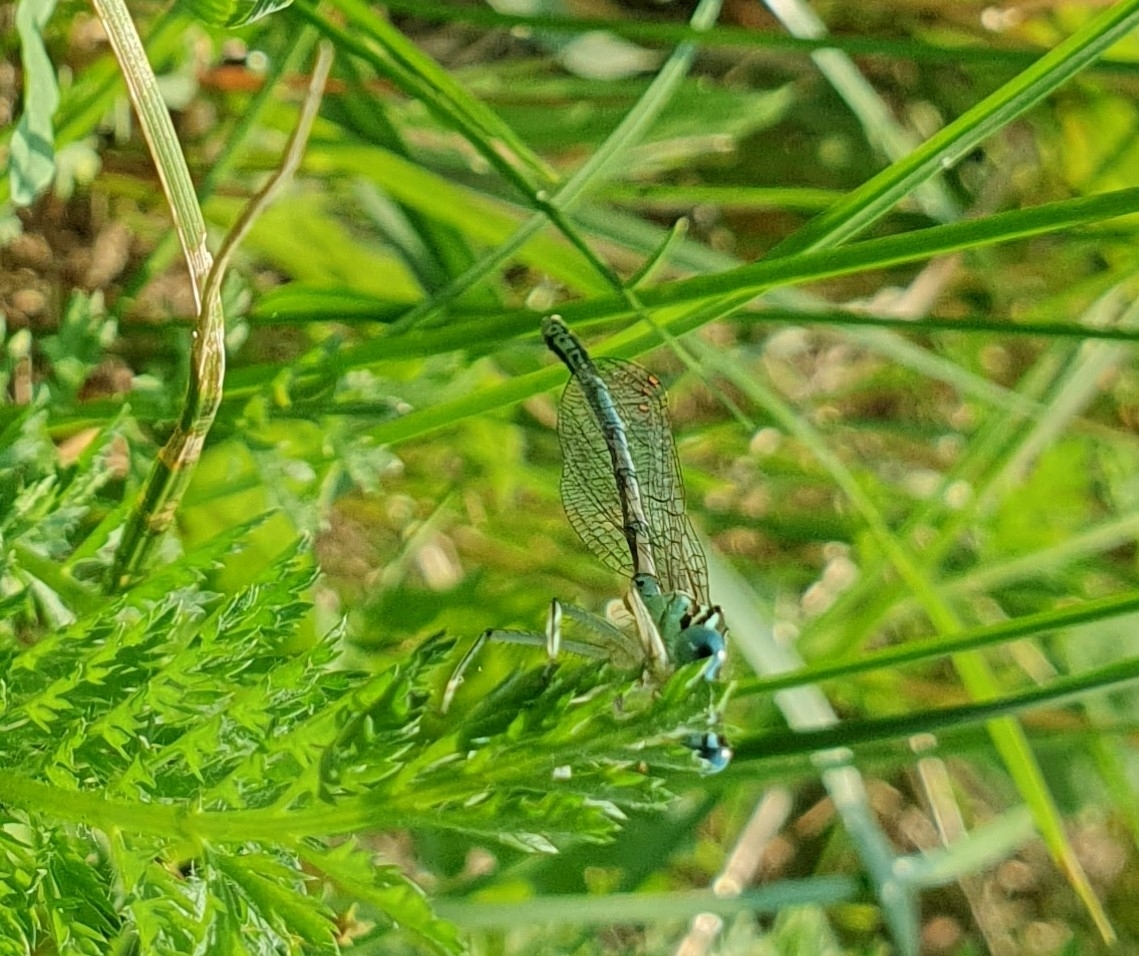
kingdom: Animalia
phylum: Arthropoda
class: Insecta
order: Odonata
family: Platycnemididae
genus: Platycnemis
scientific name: Platycnemis pennipes
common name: White-legged damselfly
